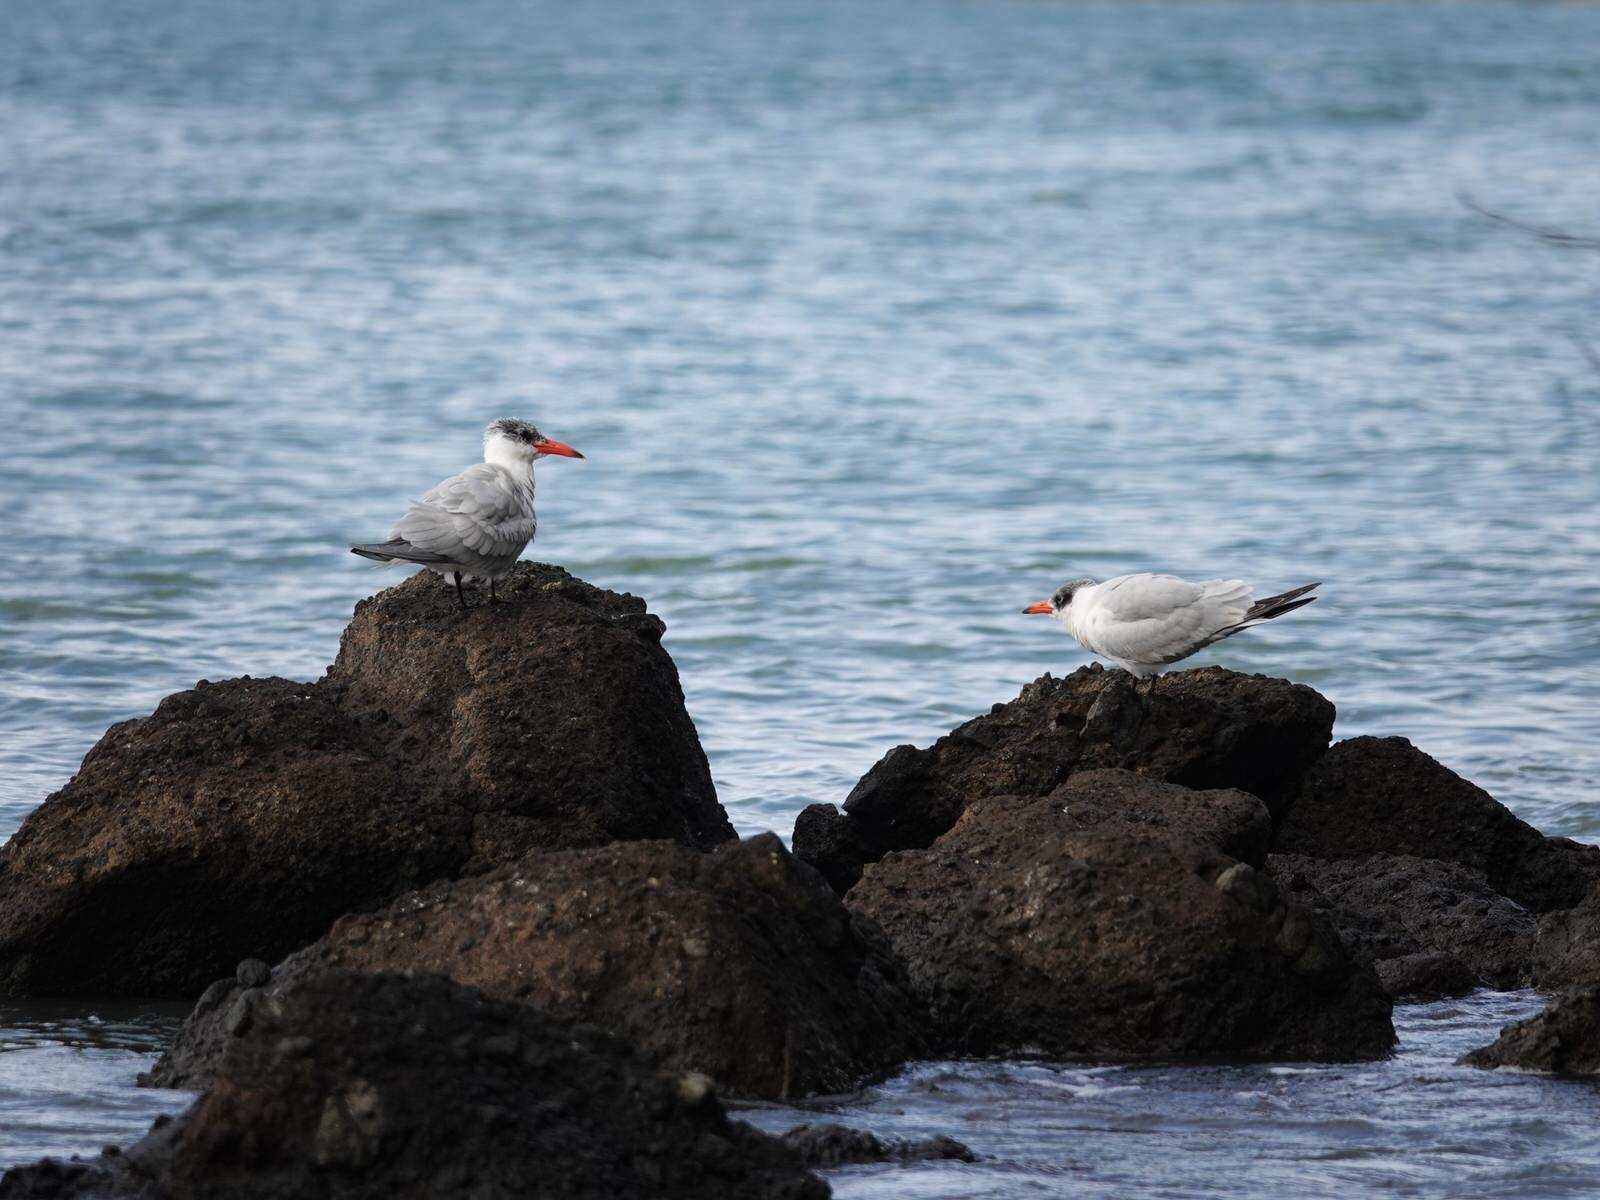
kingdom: Animalia
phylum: Chordata
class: Aves
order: Charadriiformes
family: Laridae
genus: Hydroprogne
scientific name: Hydroprogne caspia
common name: Caspian tern
